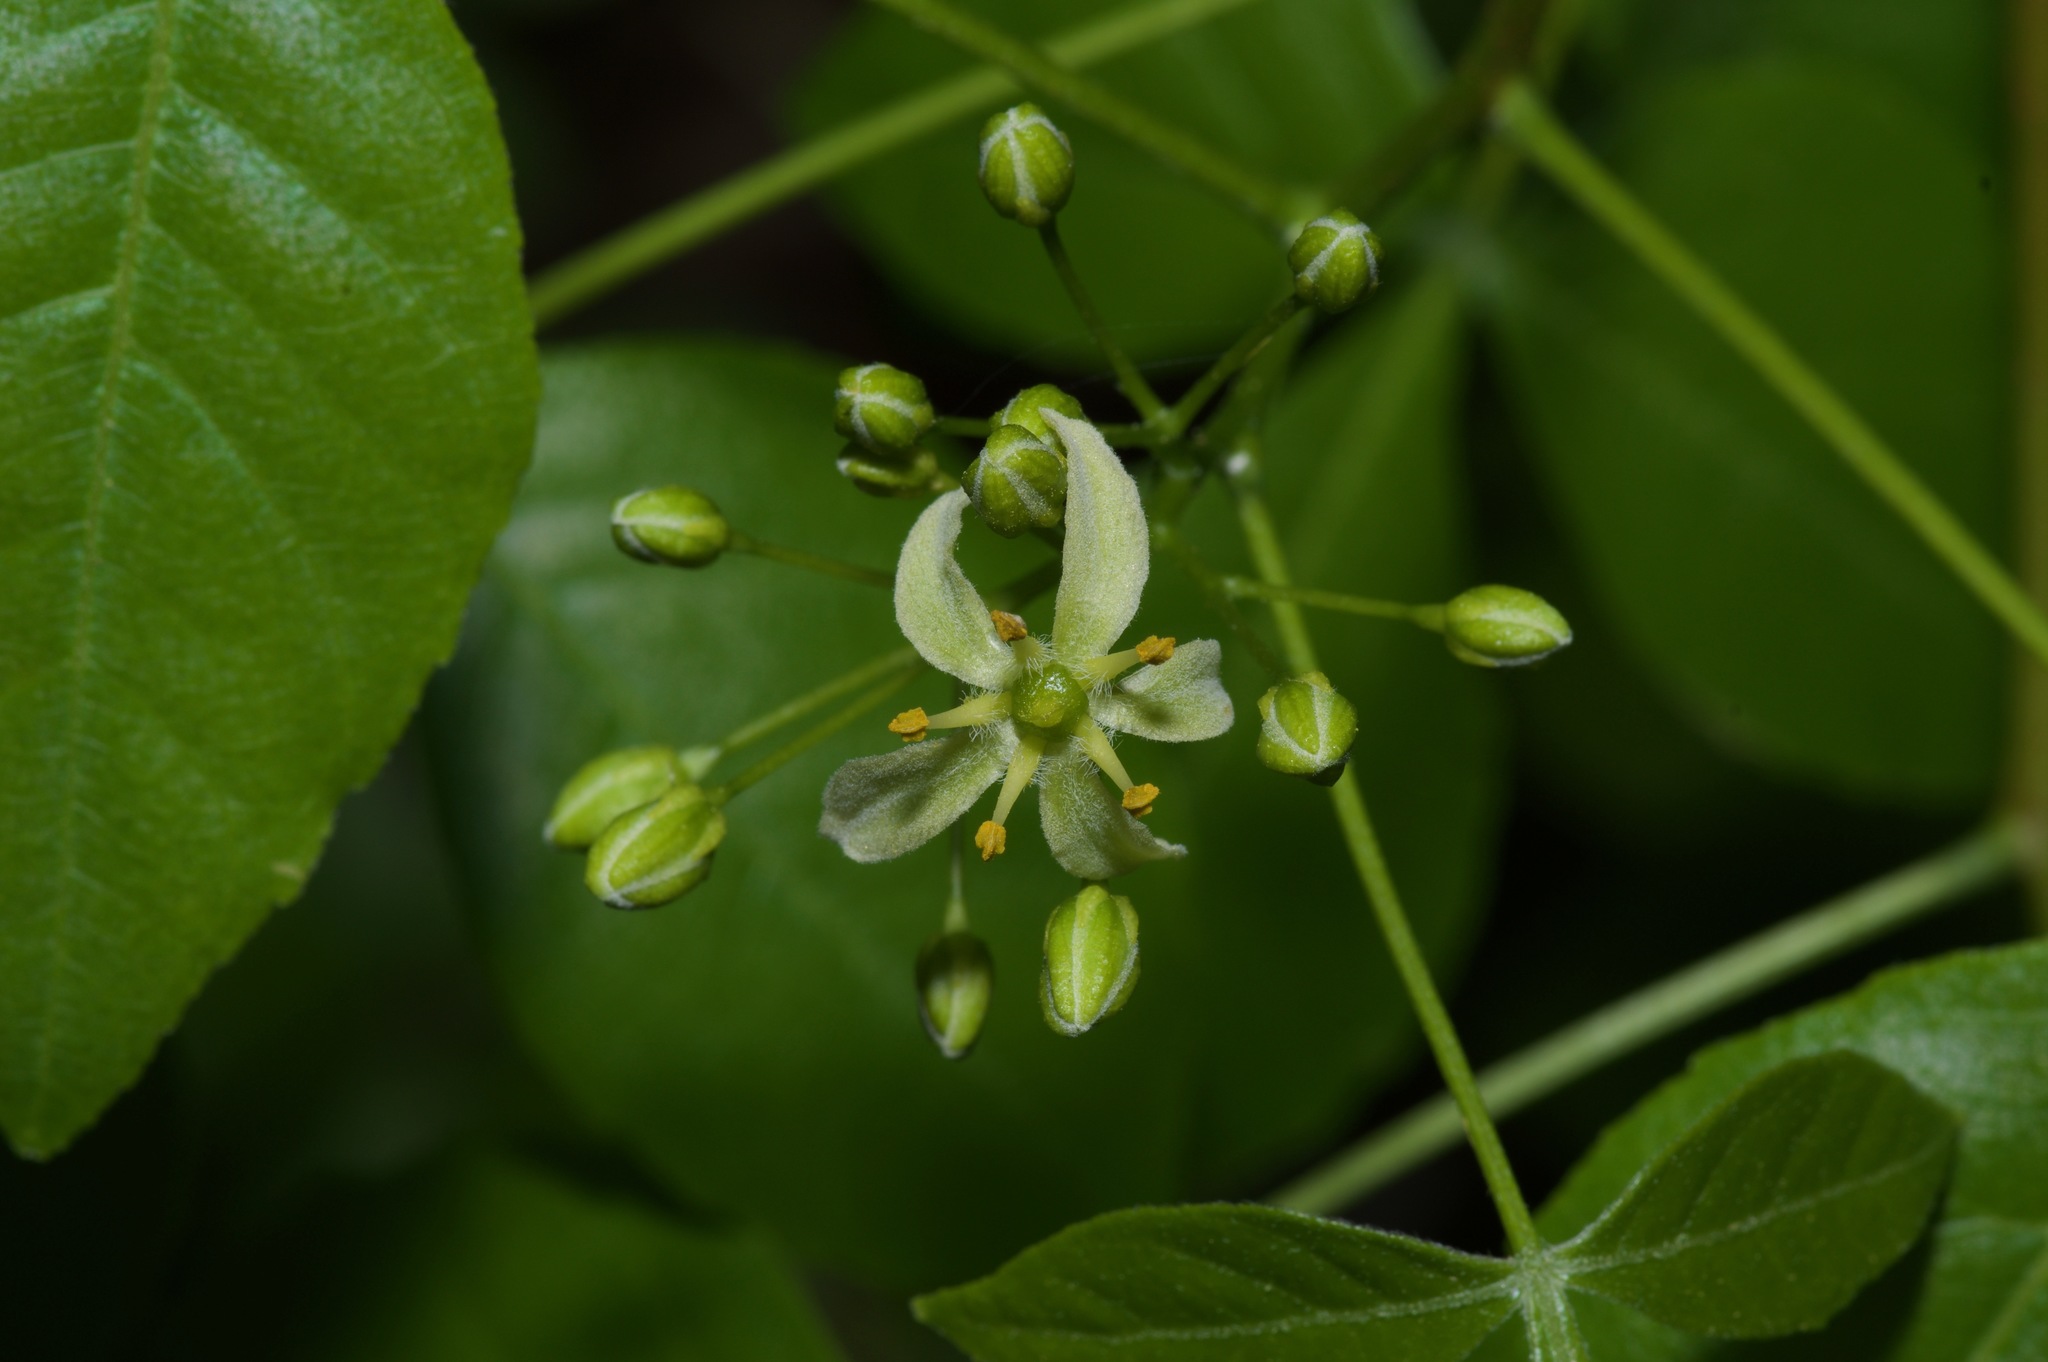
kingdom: Plantae
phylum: Tracheophyta
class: Magnoliopsida
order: Sapindales
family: Rutaceae
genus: Ptelea
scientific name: Ptelea trifoliata
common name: Common hop-tree
